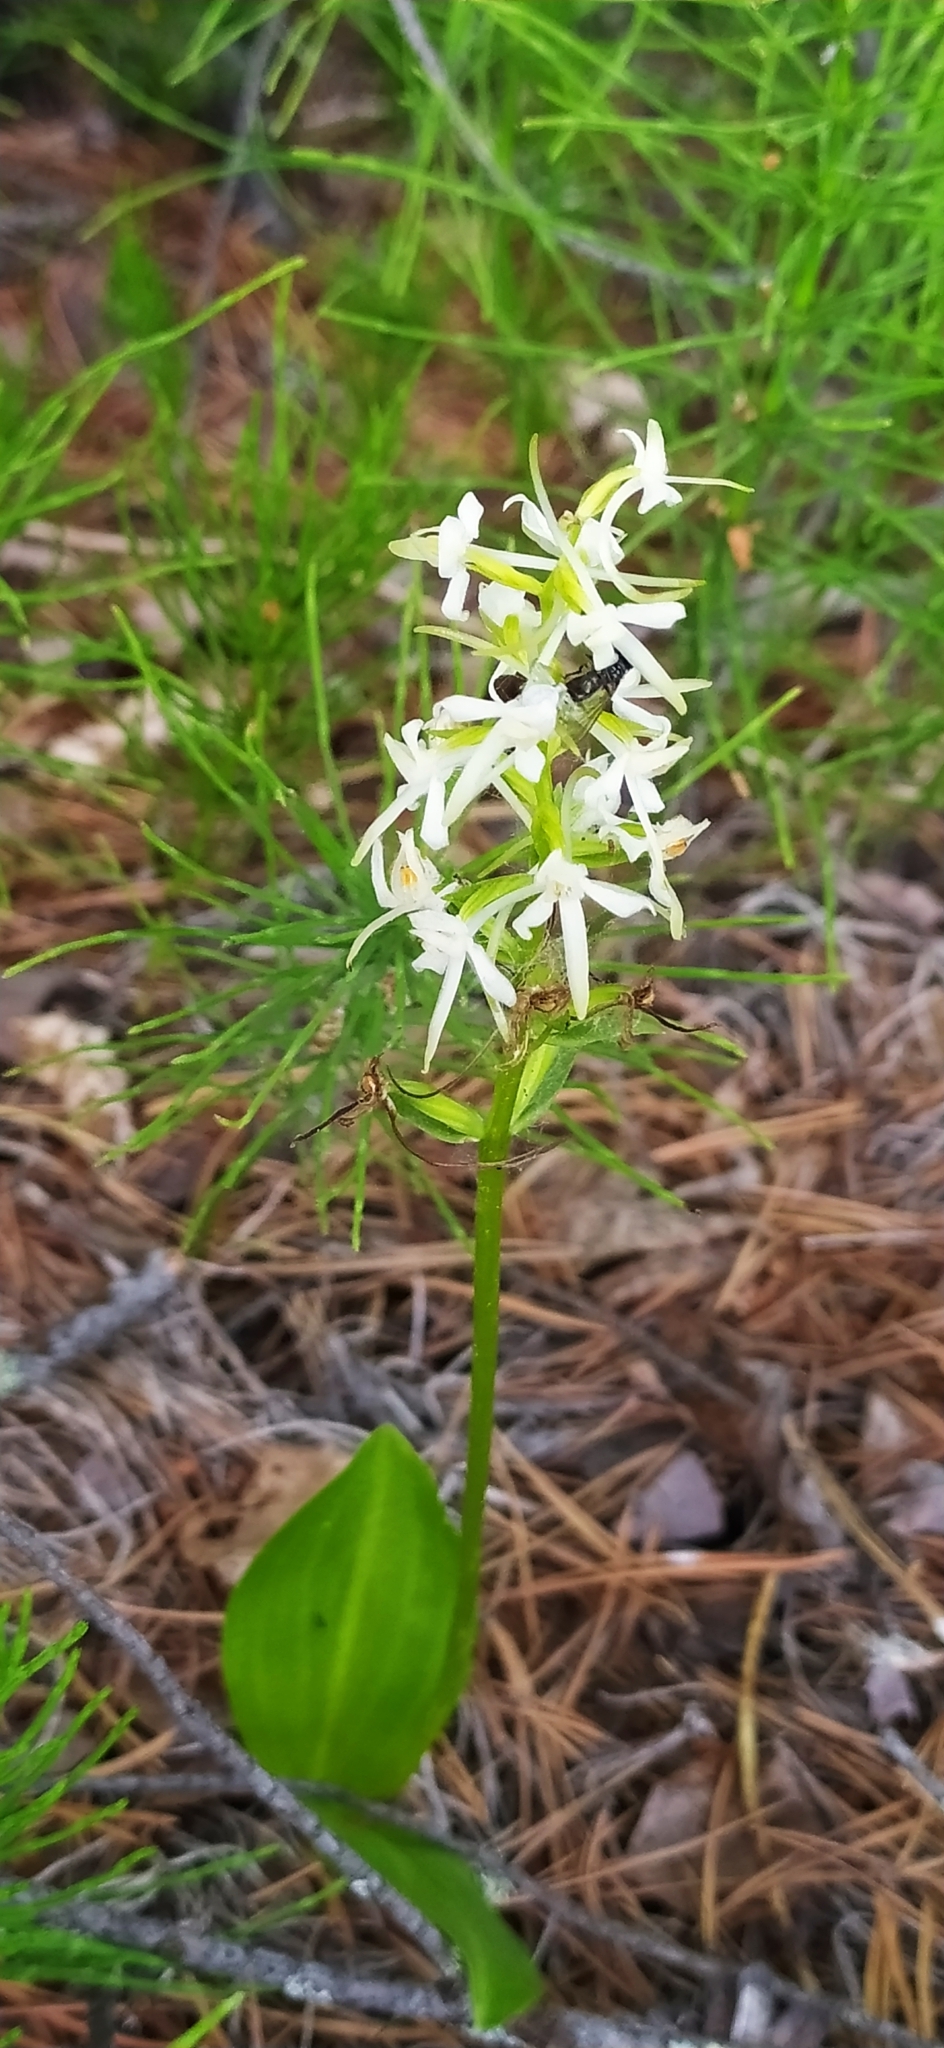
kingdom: Plantae
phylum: Tracheophyta
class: Liliopsida
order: Asparagales
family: Orchidaceae
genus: Platanthera
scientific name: Platanthera bifolia
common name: Lesser butterfly-orchid
